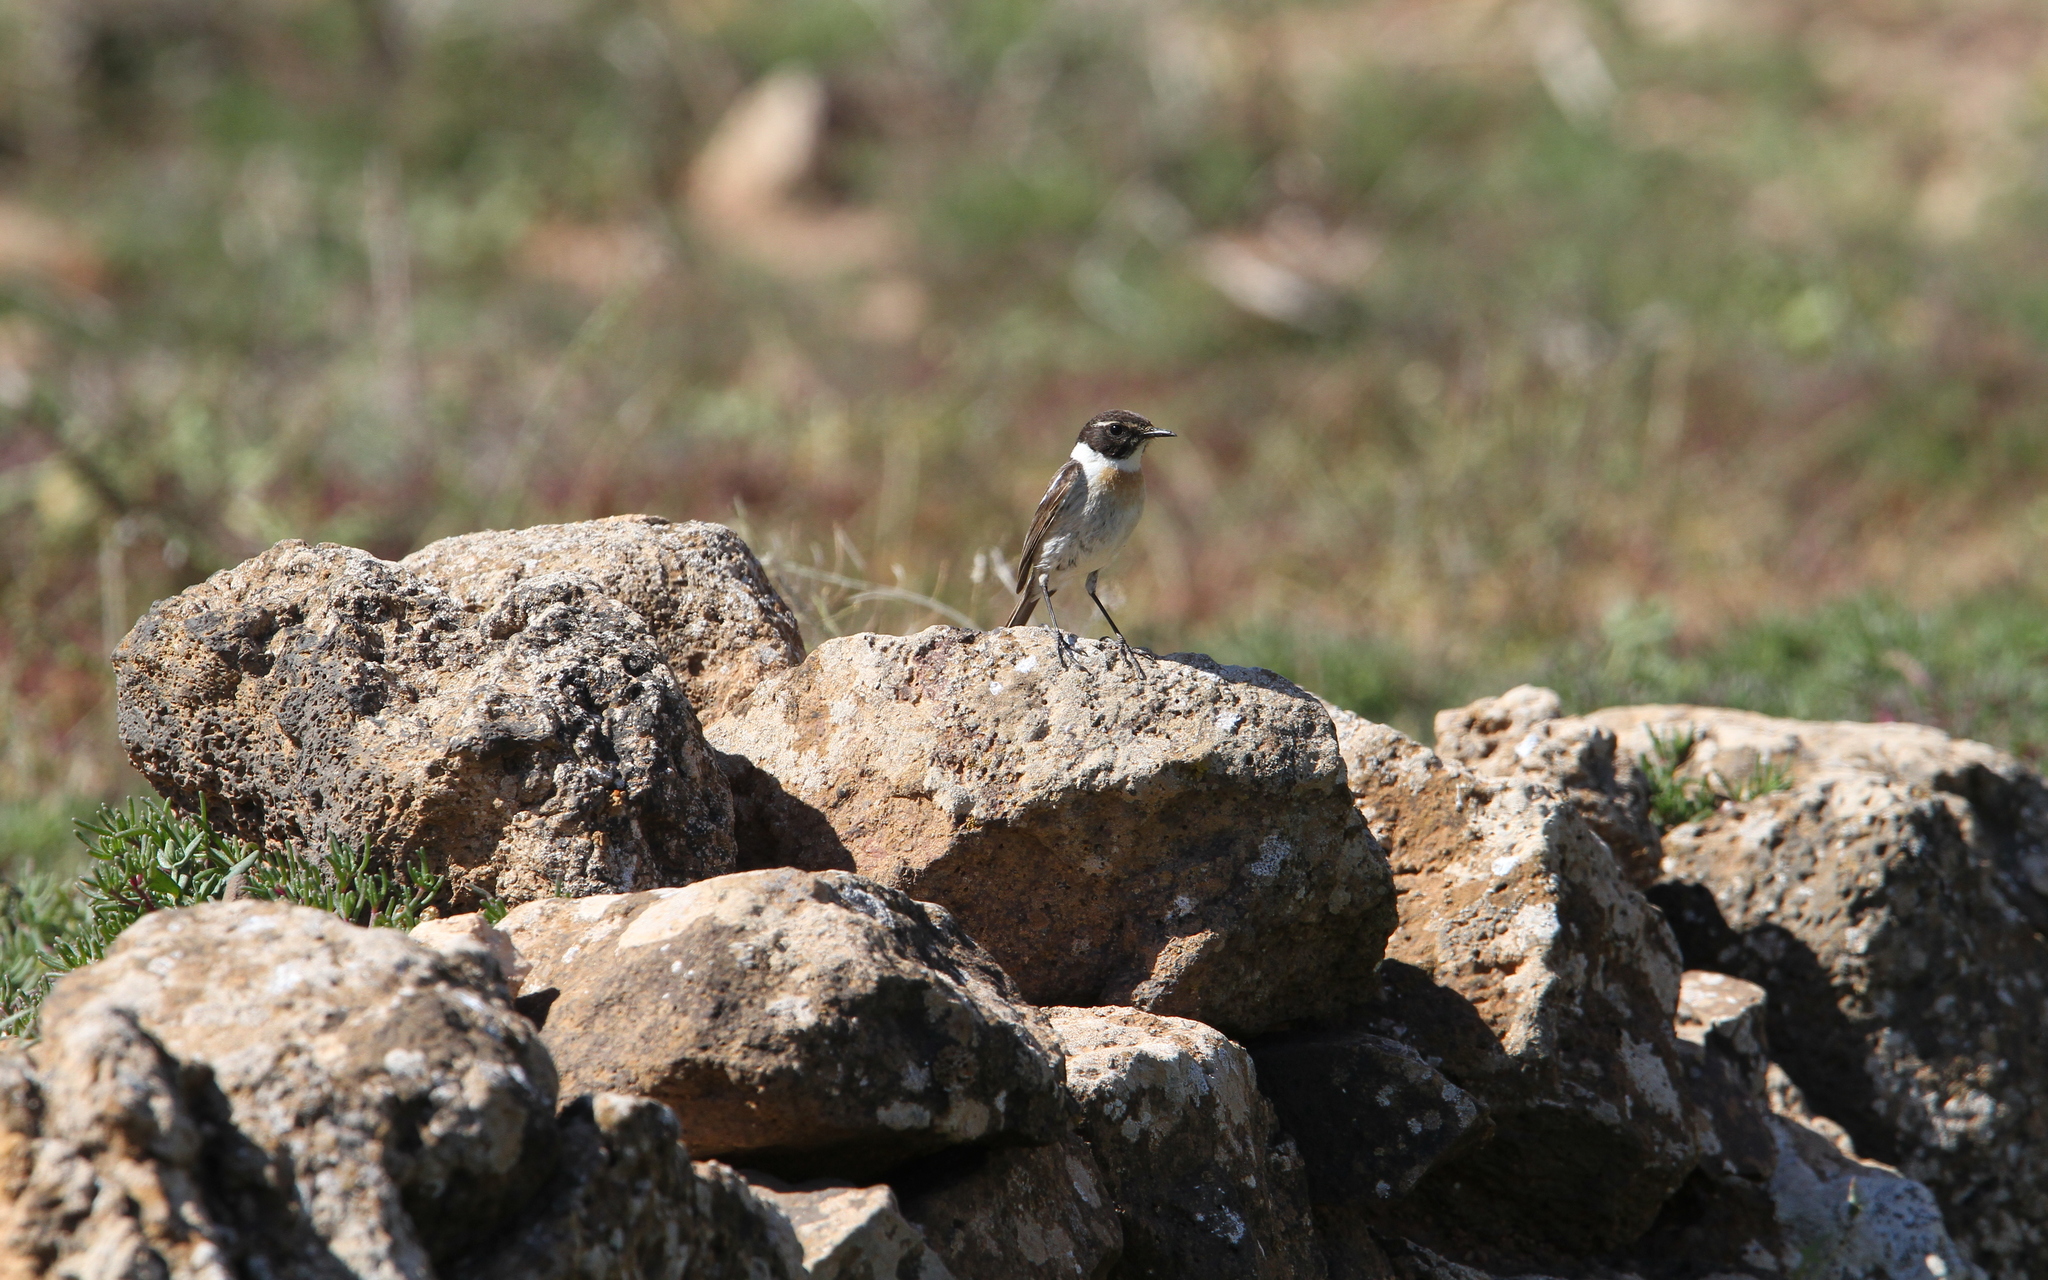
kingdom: Animalia
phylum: Chordata
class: Aves
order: Passeriformes
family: Muscicapidae
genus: Saxicola
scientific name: Saxicola dacotiae
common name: Canary islands stonechat
